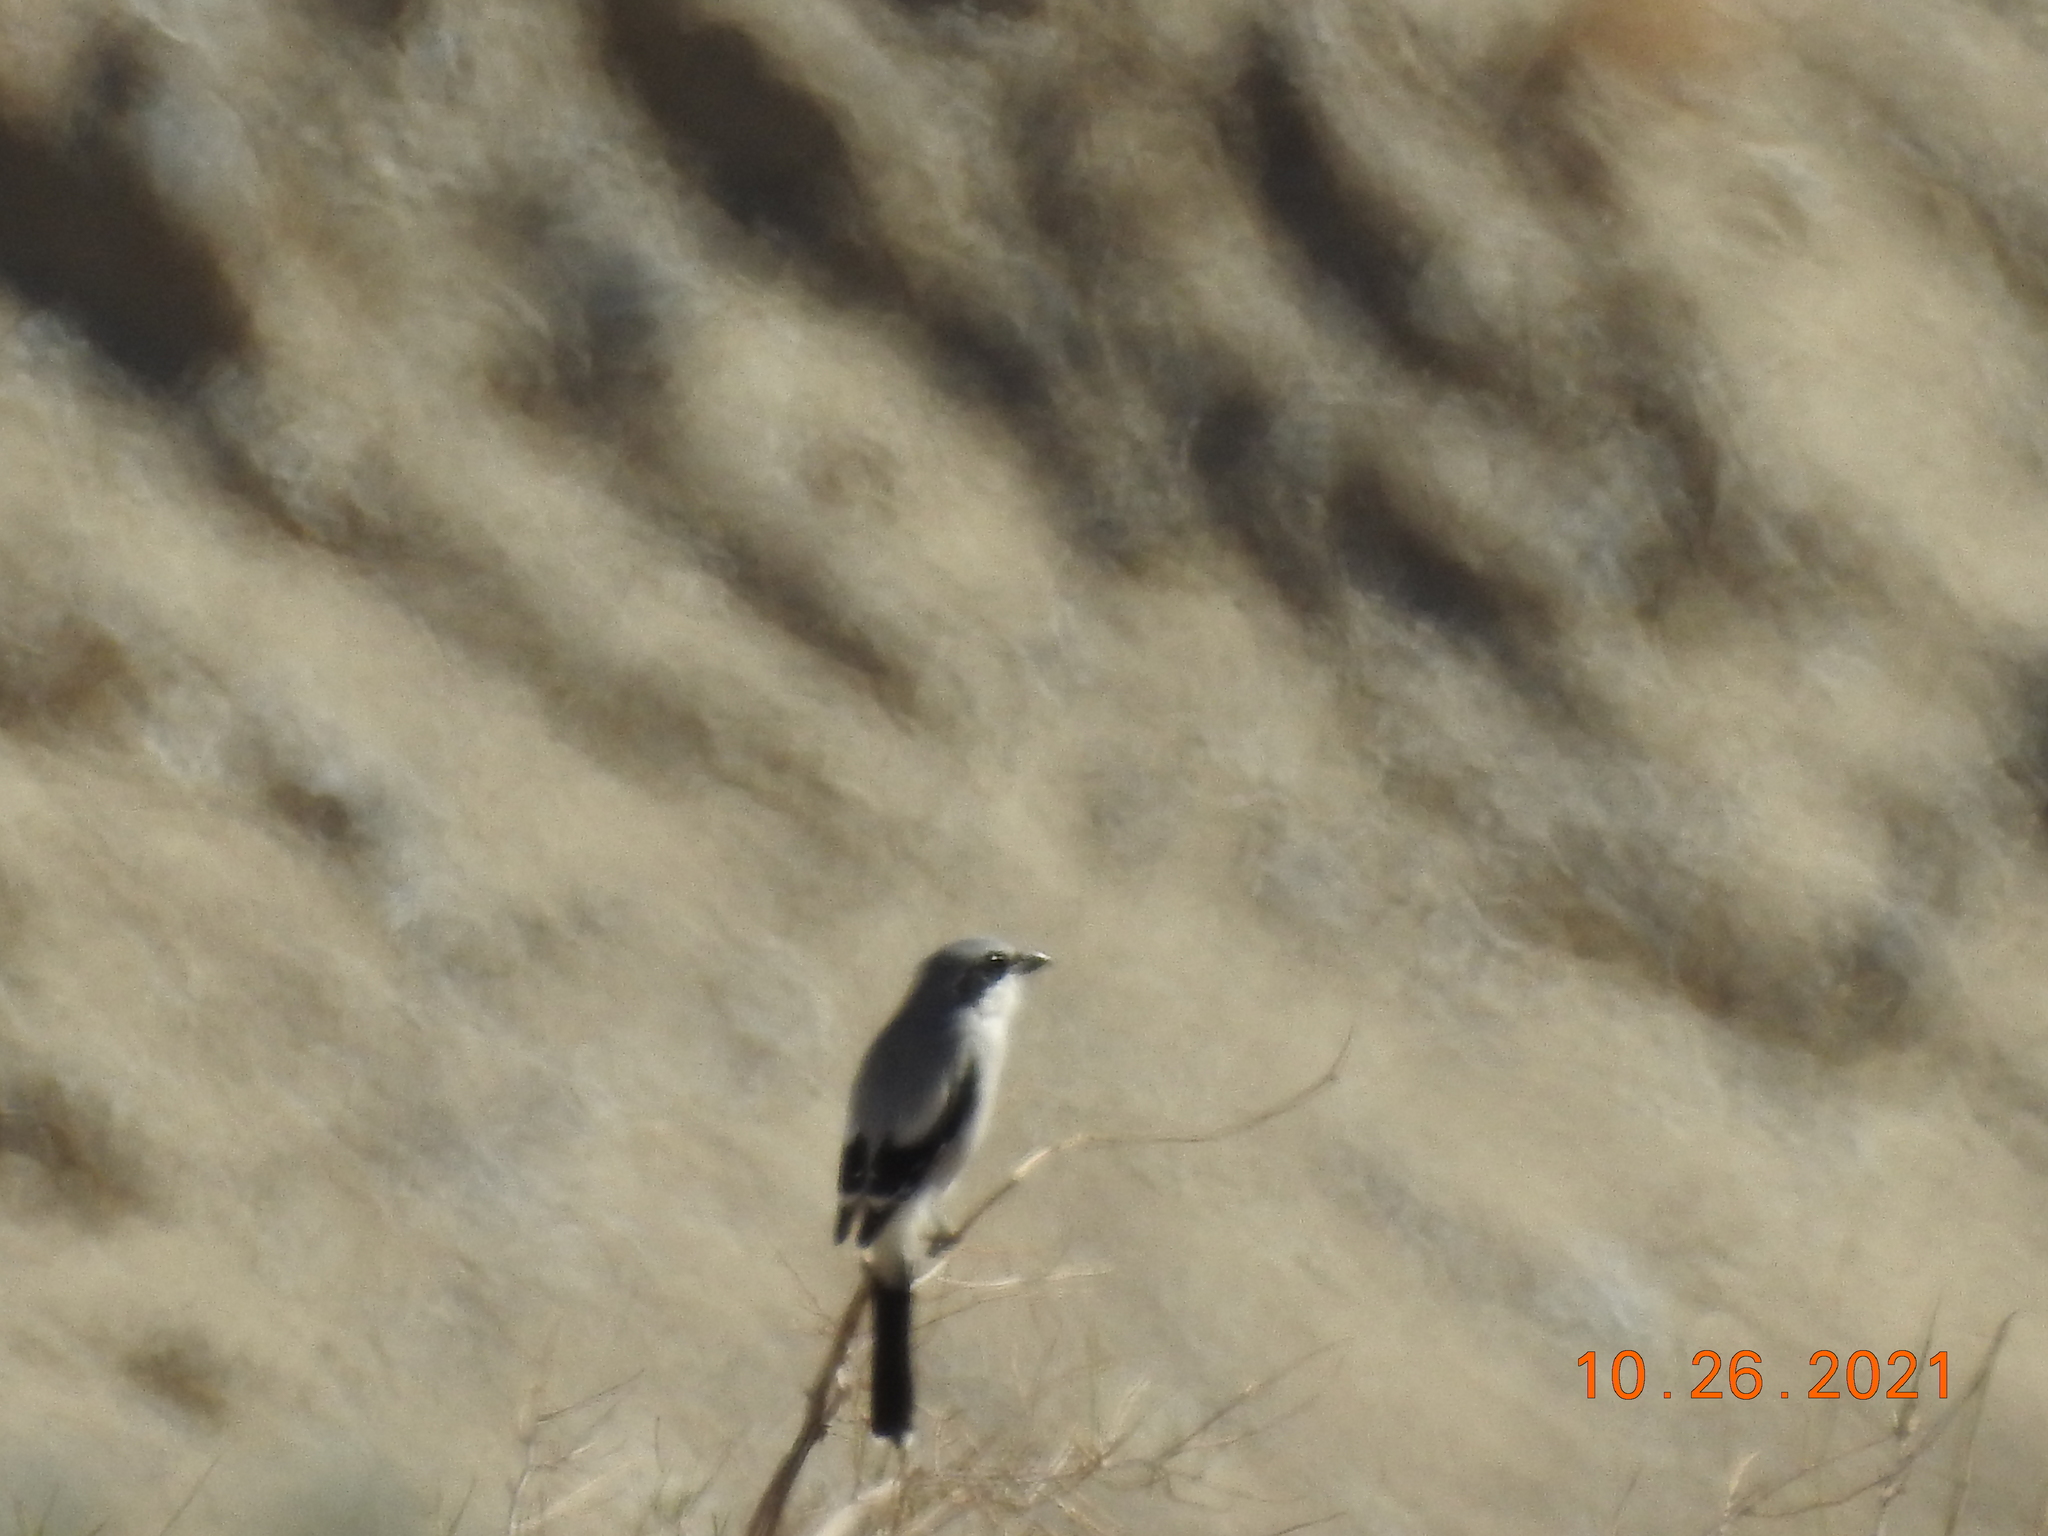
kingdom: Animalia
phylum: Chordata
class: Aves
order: Passeriformes
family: Laniidae
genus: Lanius
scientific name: Lanius ludovicianus
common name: Loggerhead shrike
